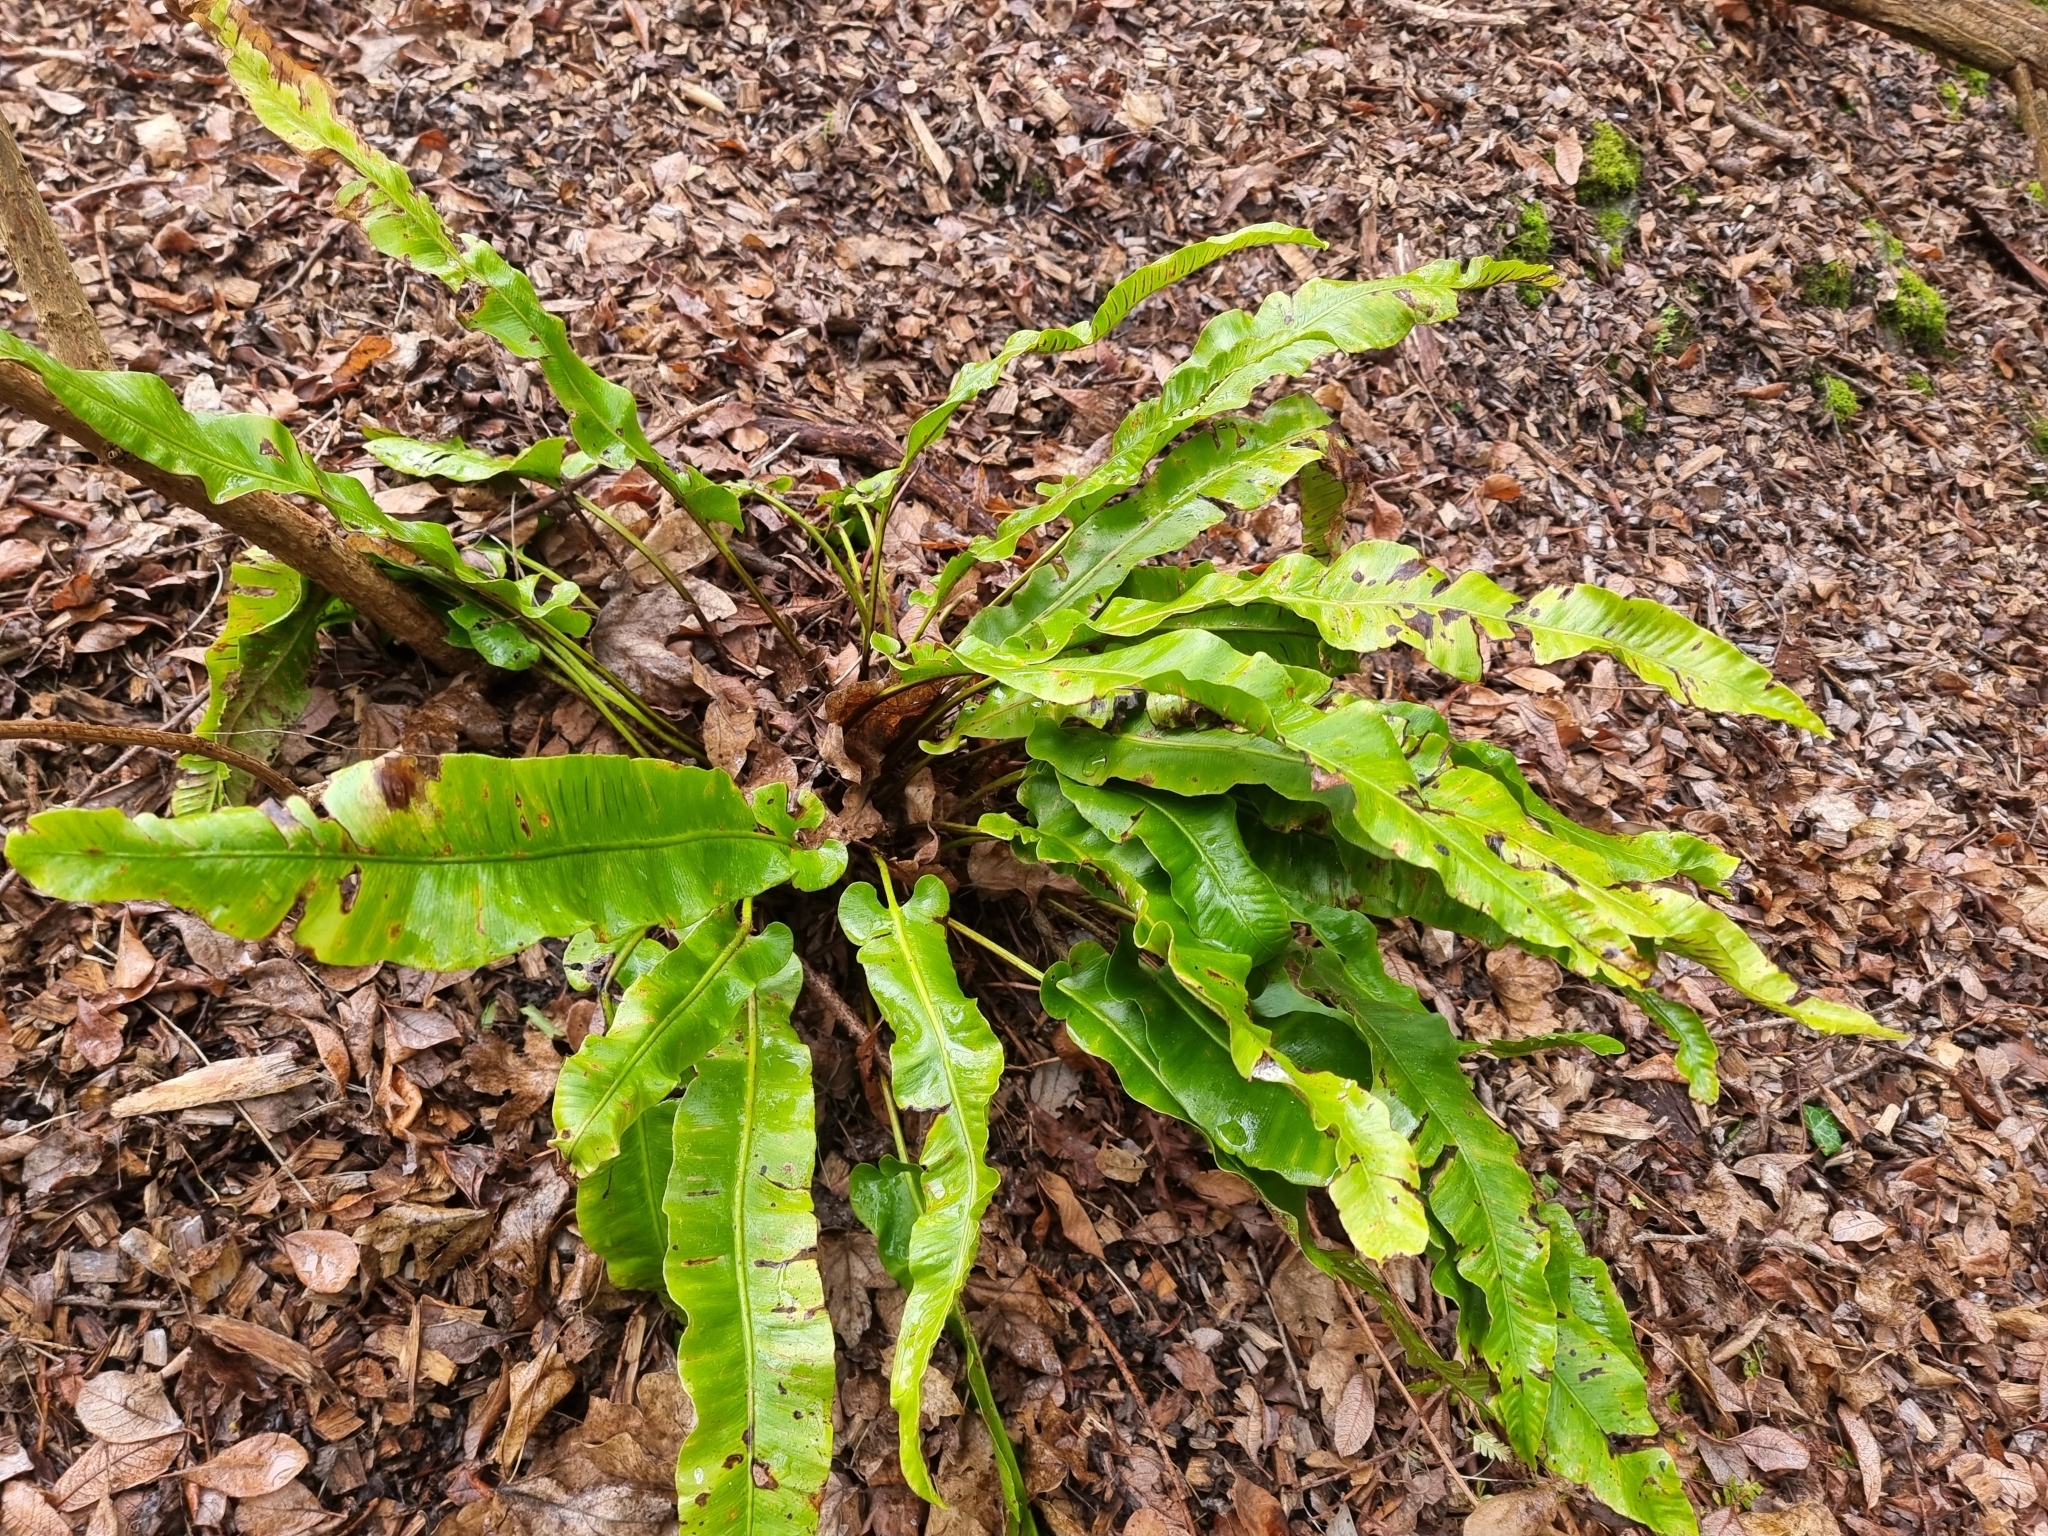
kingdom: Plantae
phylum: Tracheophyta
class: Polypodiopsida
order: Polypodiales
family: Aspleniaceae
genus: Asplenium
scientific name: Asplenium scolopendrium
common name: Hart's-tongue fern
